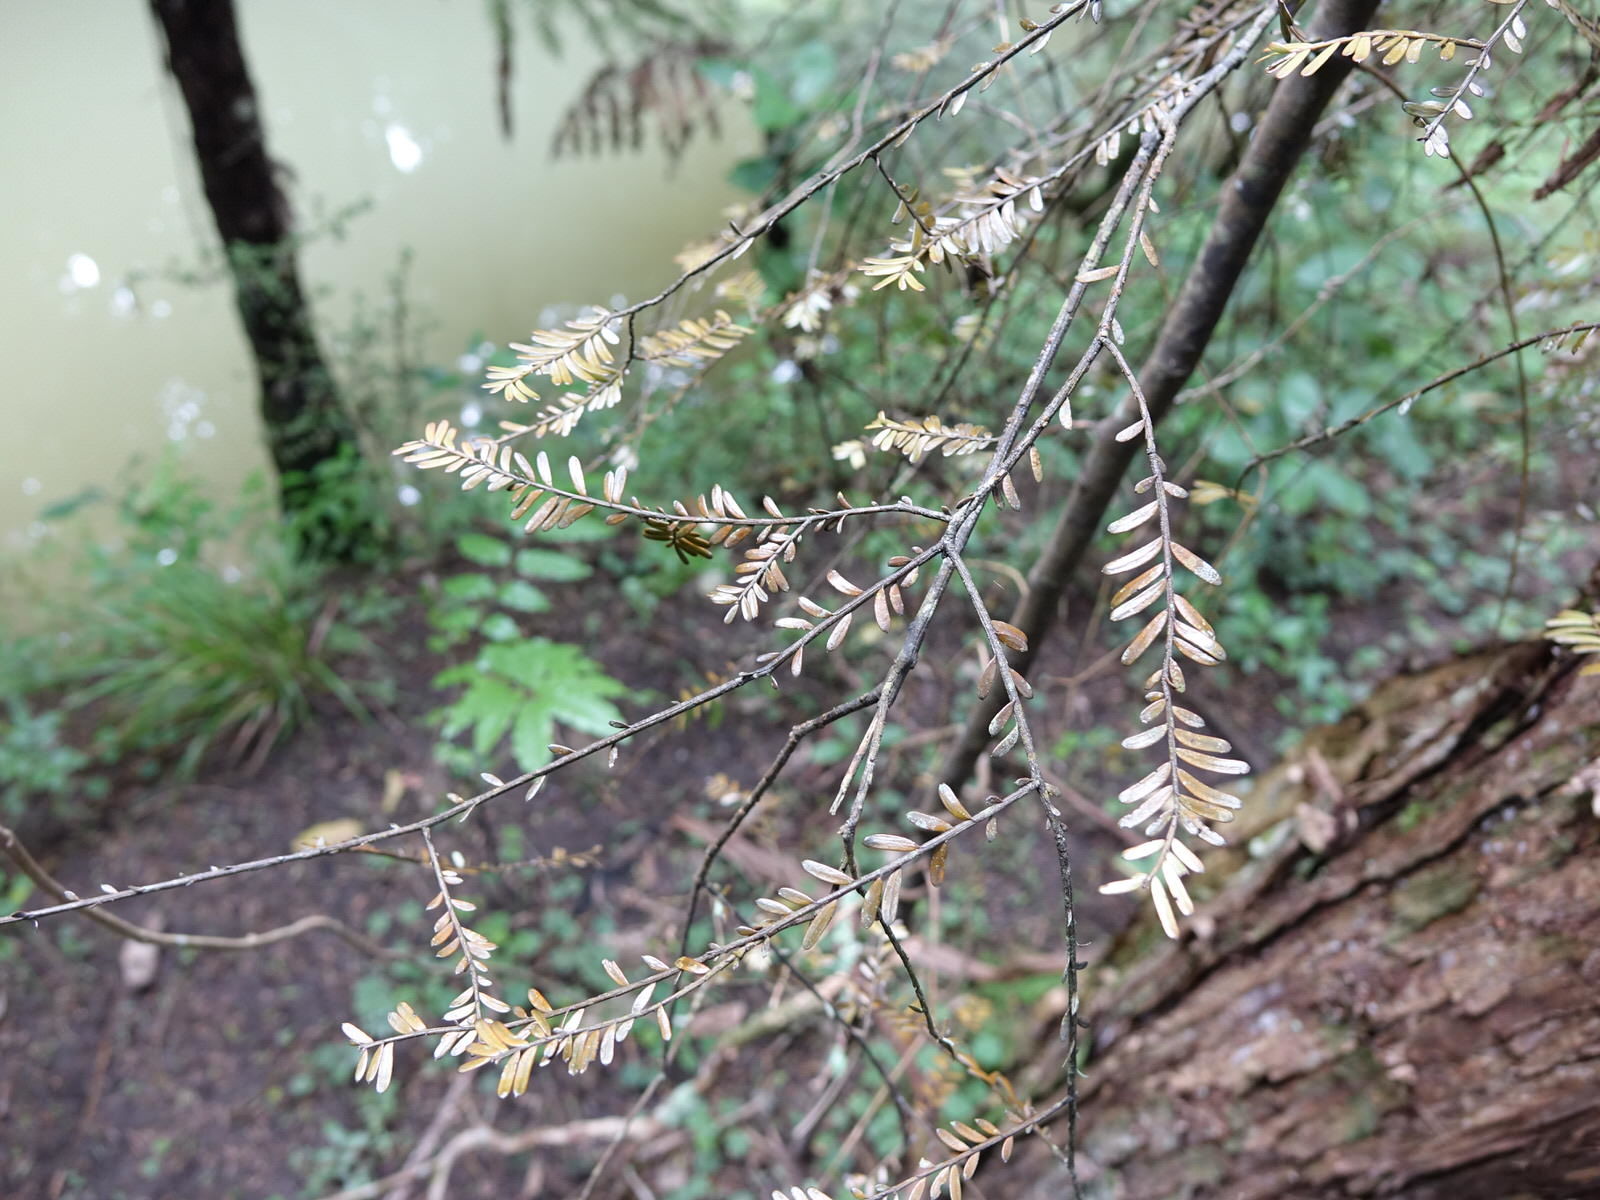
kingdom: Plantae
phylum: Tracheophyta
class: Pinopsida
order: Pinales
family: Podocarpaceae
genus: Prumnopitys
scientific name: Prumnopitys taxifolia
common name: Matai
